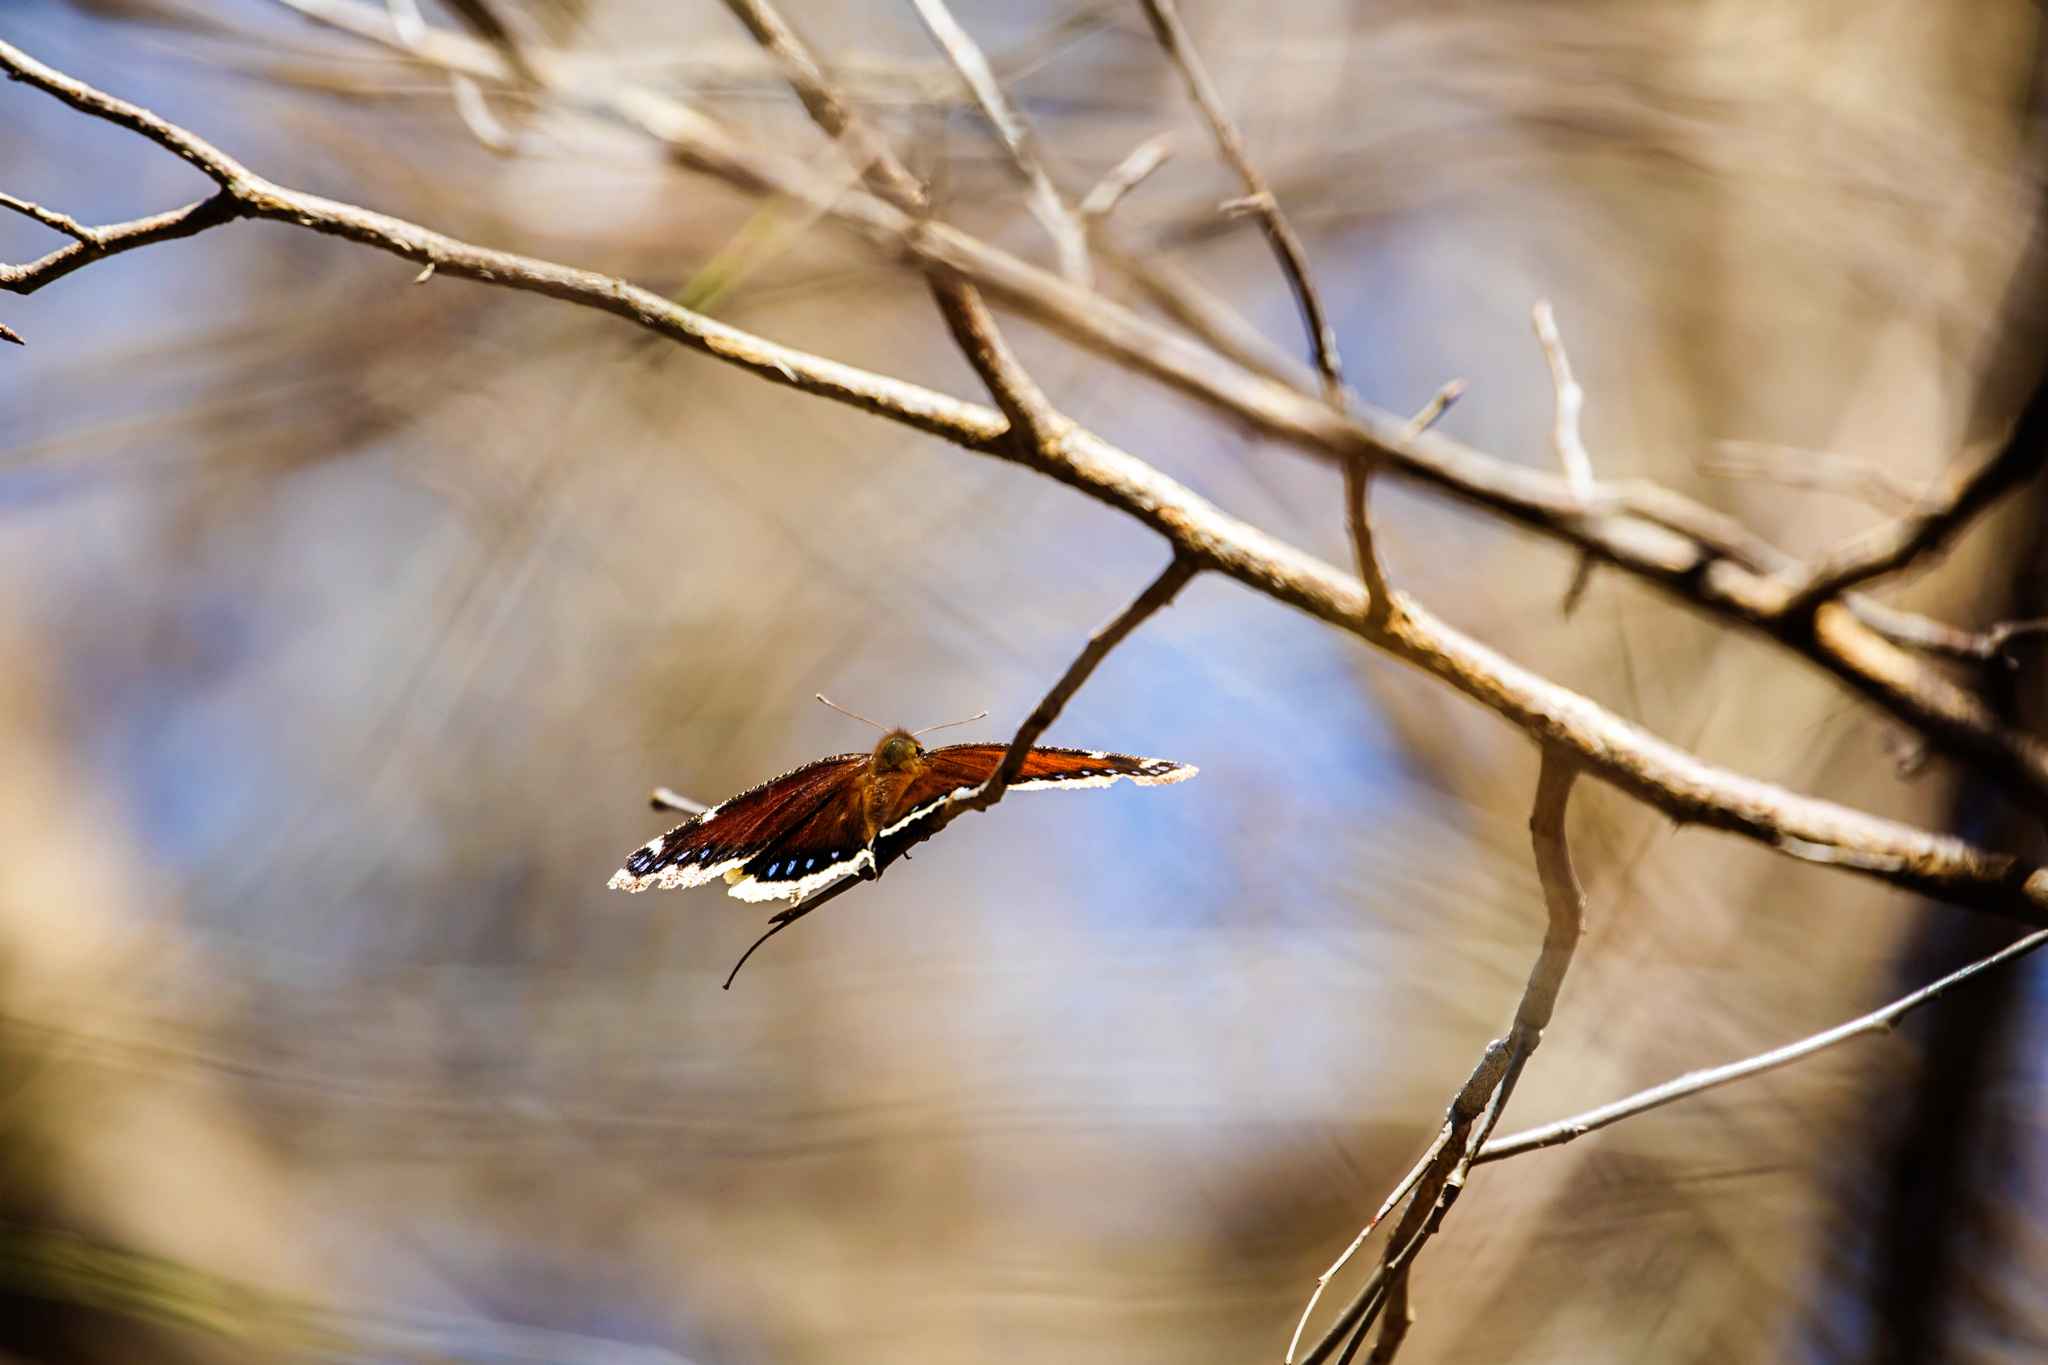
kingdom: Animalia
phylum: Arthropoda
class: Insecta
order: Lepidoptera
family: Nymphalidae
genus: Nymphalis
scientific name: Nymphalis antiopa
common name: Camberwell beauty
